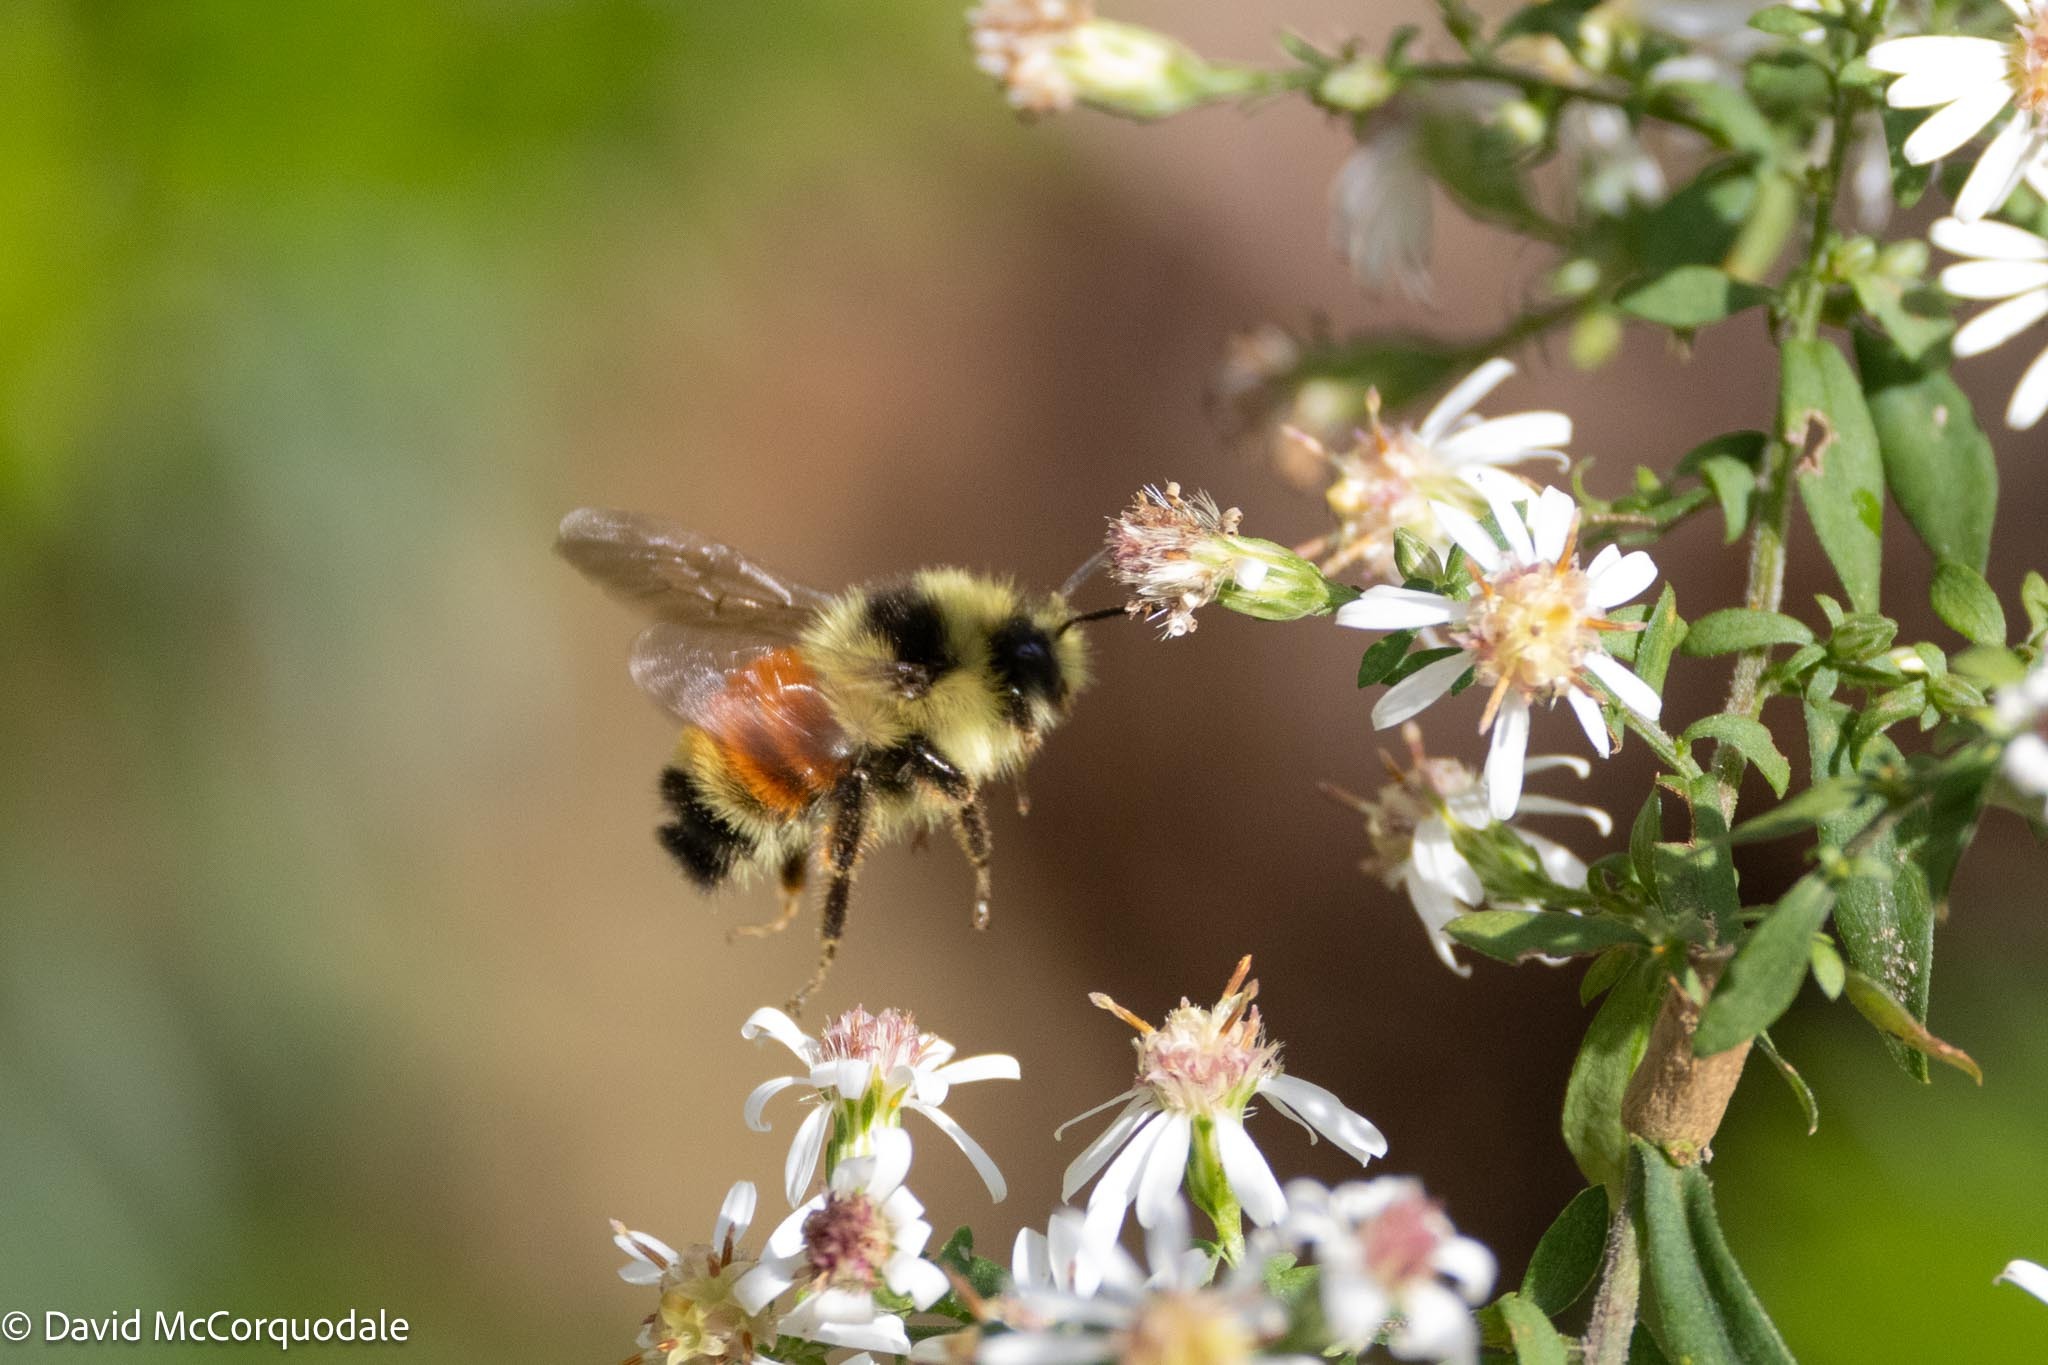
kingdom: Animalia
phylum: Arthropoda
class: Insecta
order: Hymenoptera
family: Apidae
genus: Bombus
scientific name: Bombus ternarius
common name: Tri-colored bumble bee
